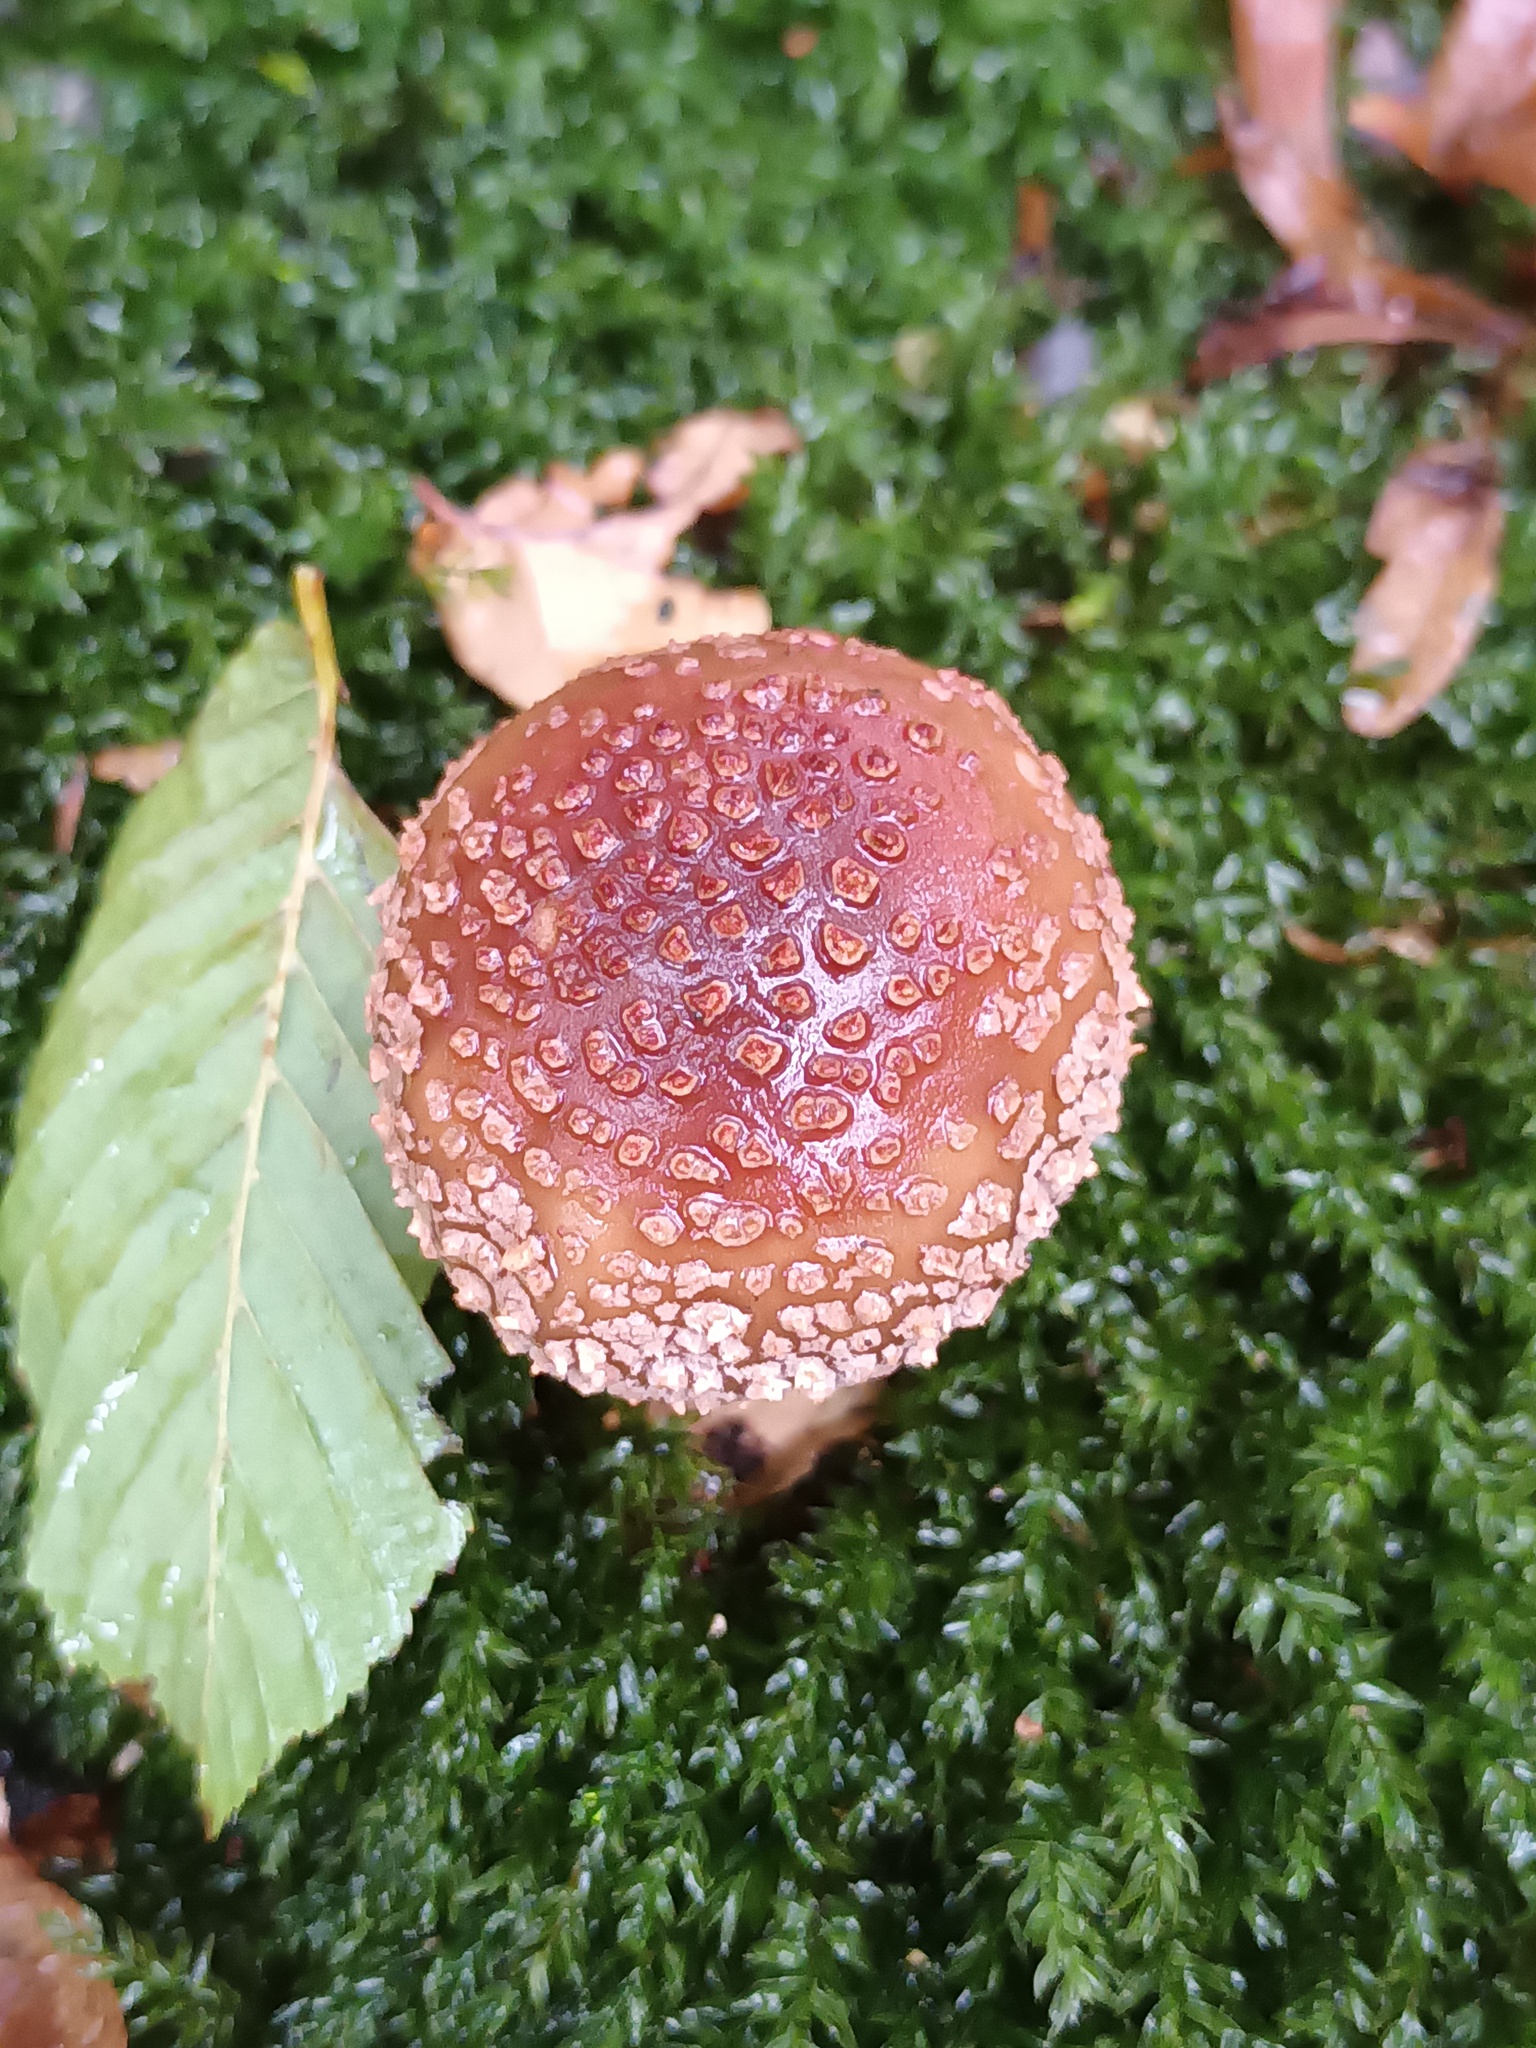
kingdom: Fungi
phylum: Basidiomycota
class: Agaricomycetes
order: Agaricales
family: Amanitaceae
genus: Amanita
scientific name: Amanita rubescens
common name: Blusher
